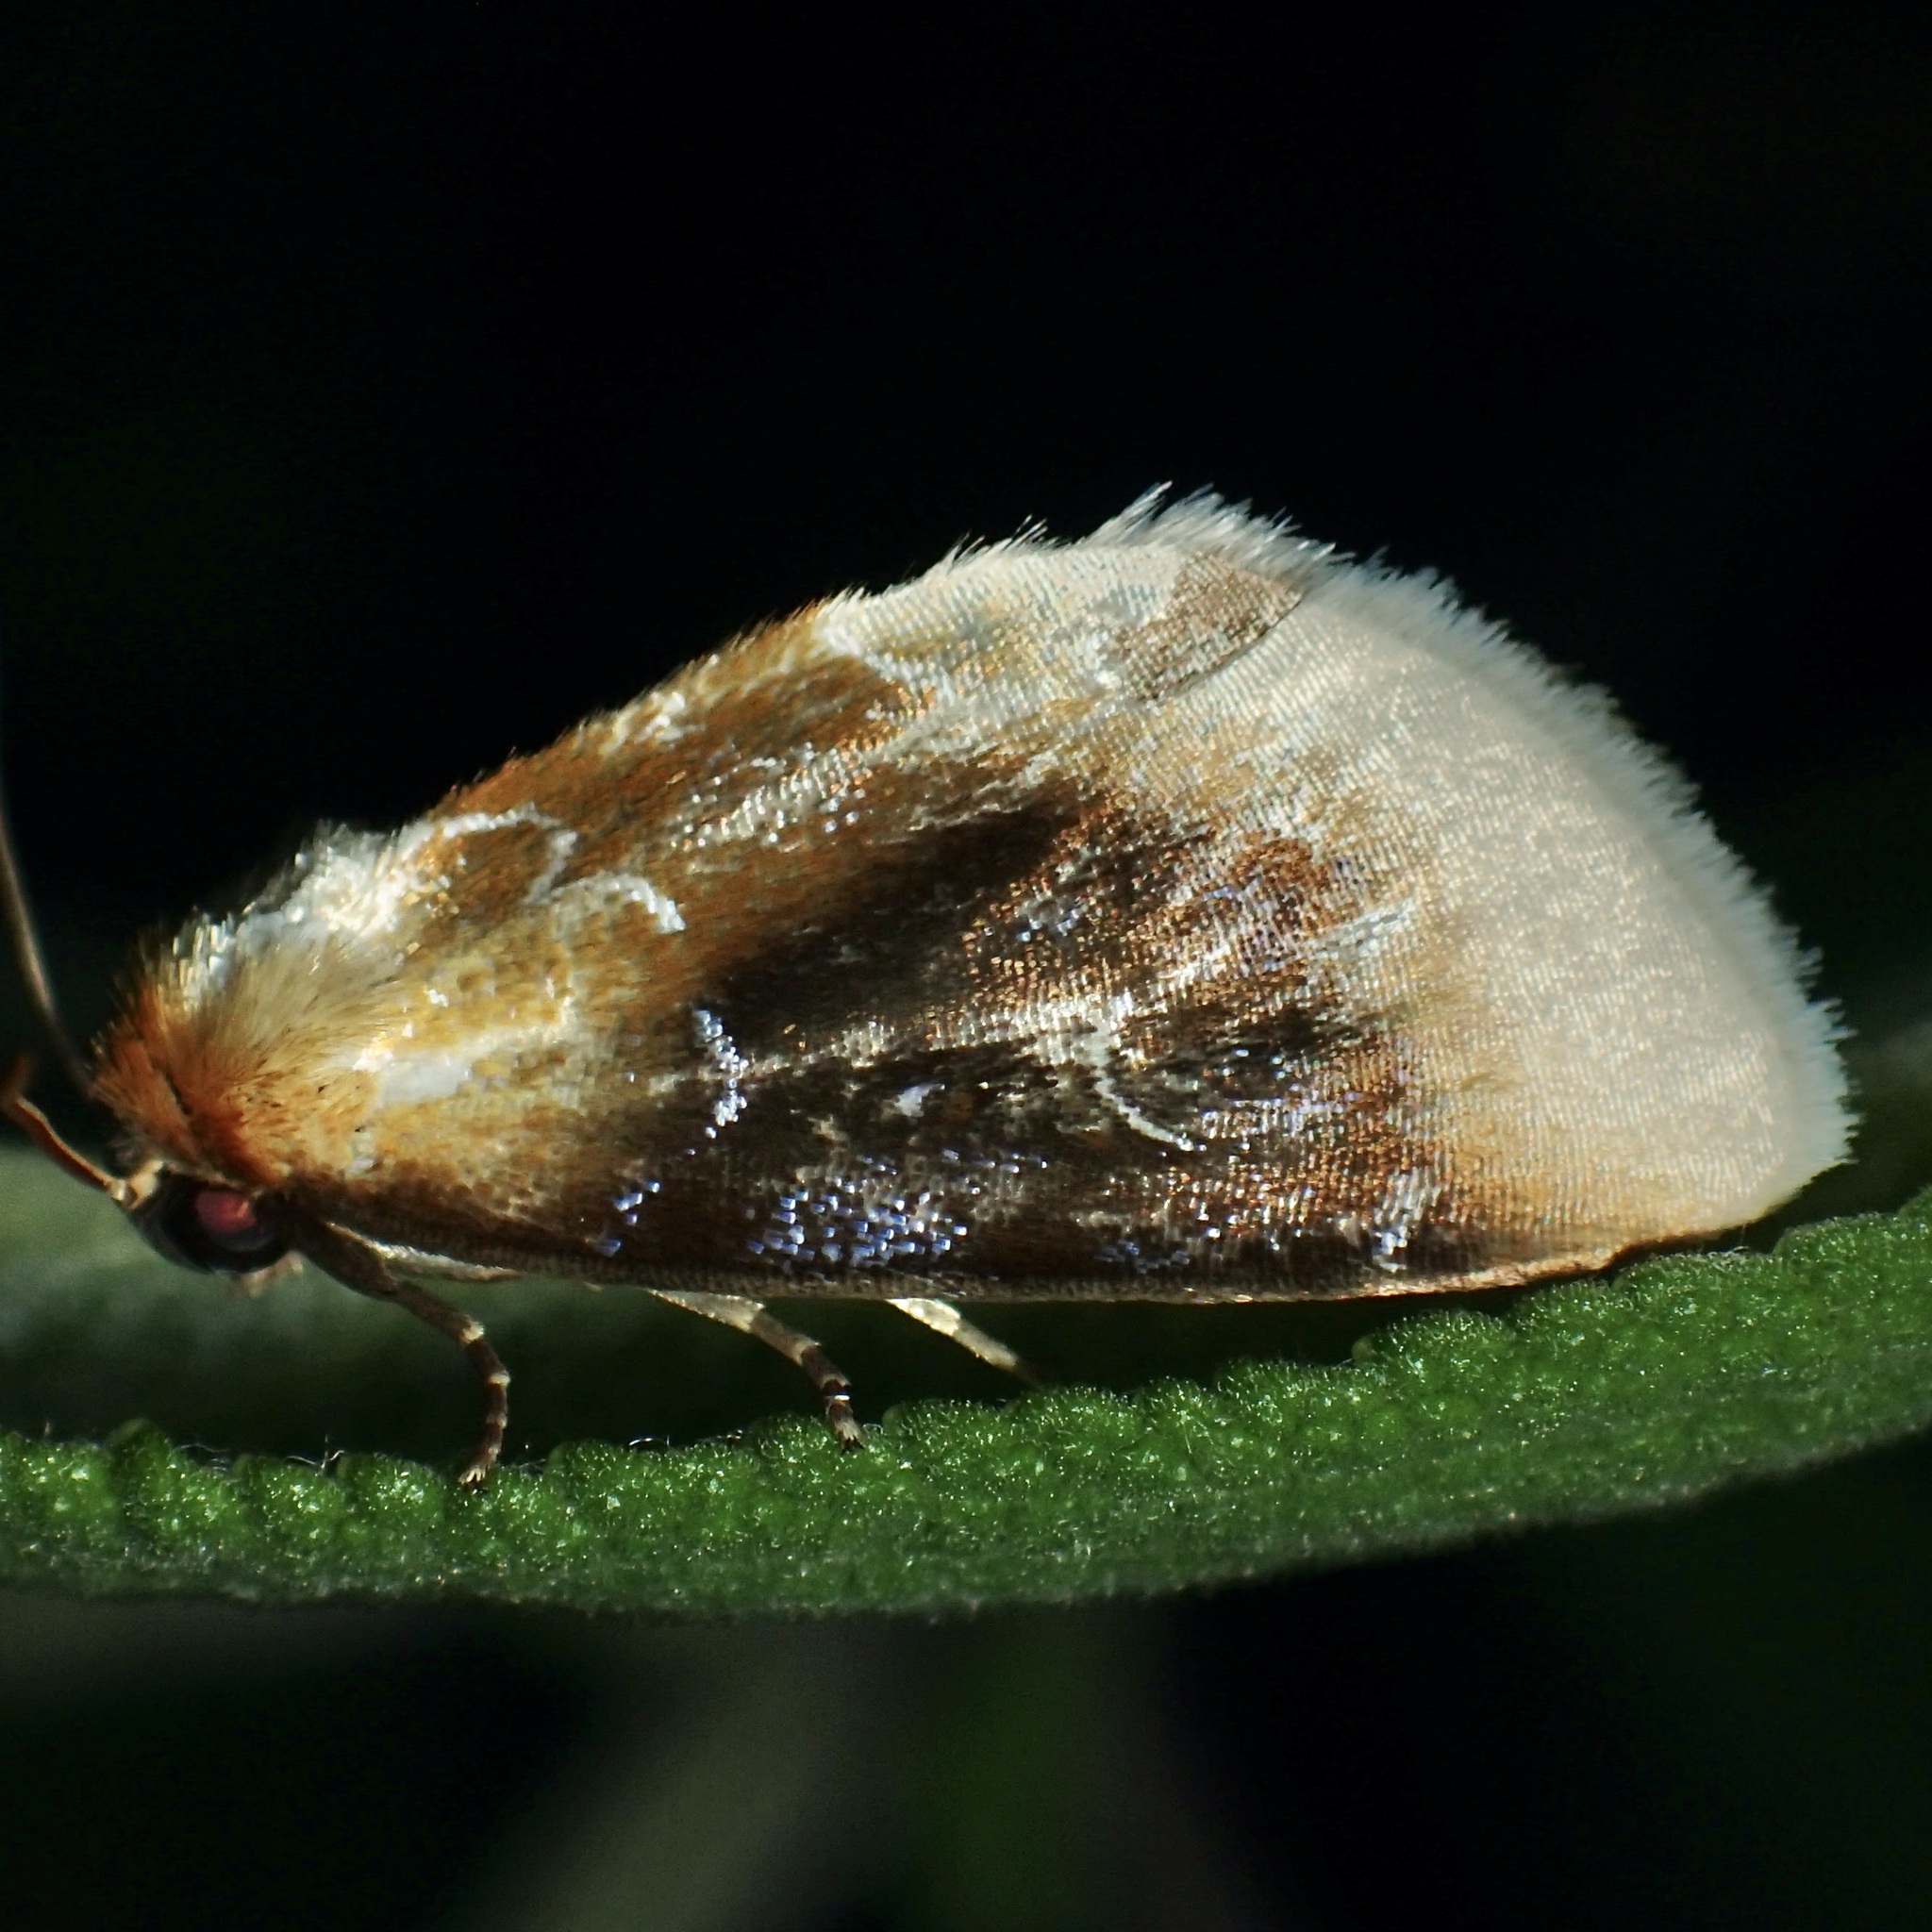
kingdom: Animalia
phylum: Arthropoda
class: Insecta
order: Lepidoptera
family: Noctuidae
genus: Chrysoecia
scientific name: Chrysoecia scira
